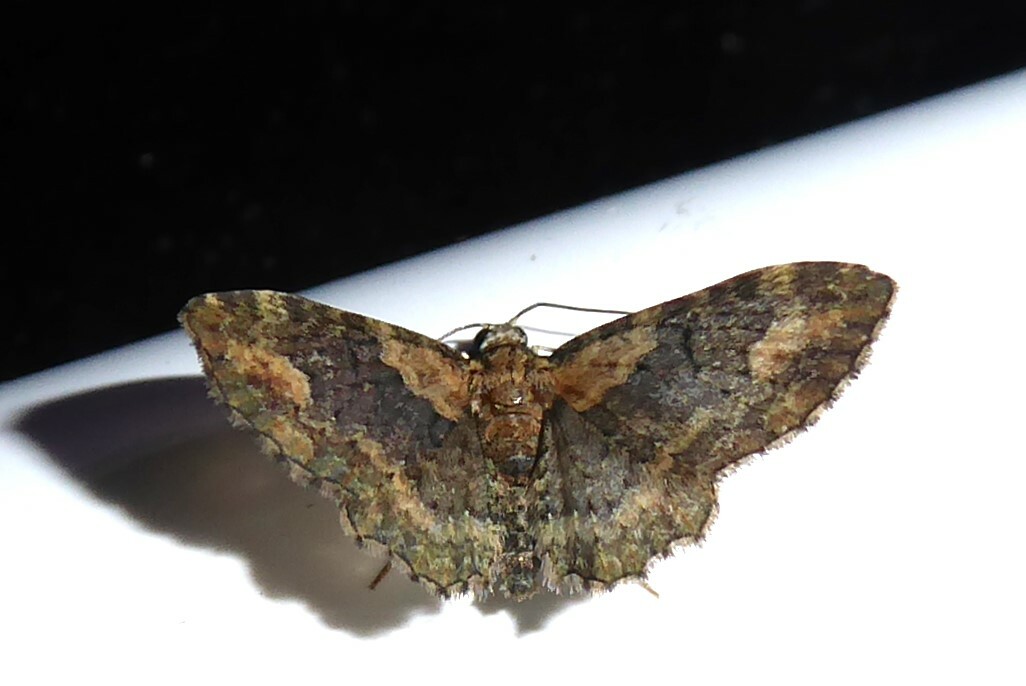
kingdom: Animalia
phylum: Arthropoda
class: Insecta
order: Lepidoptera
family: Geometridae
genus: Pasiphilodes
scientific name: Pasiphilodes testulata
